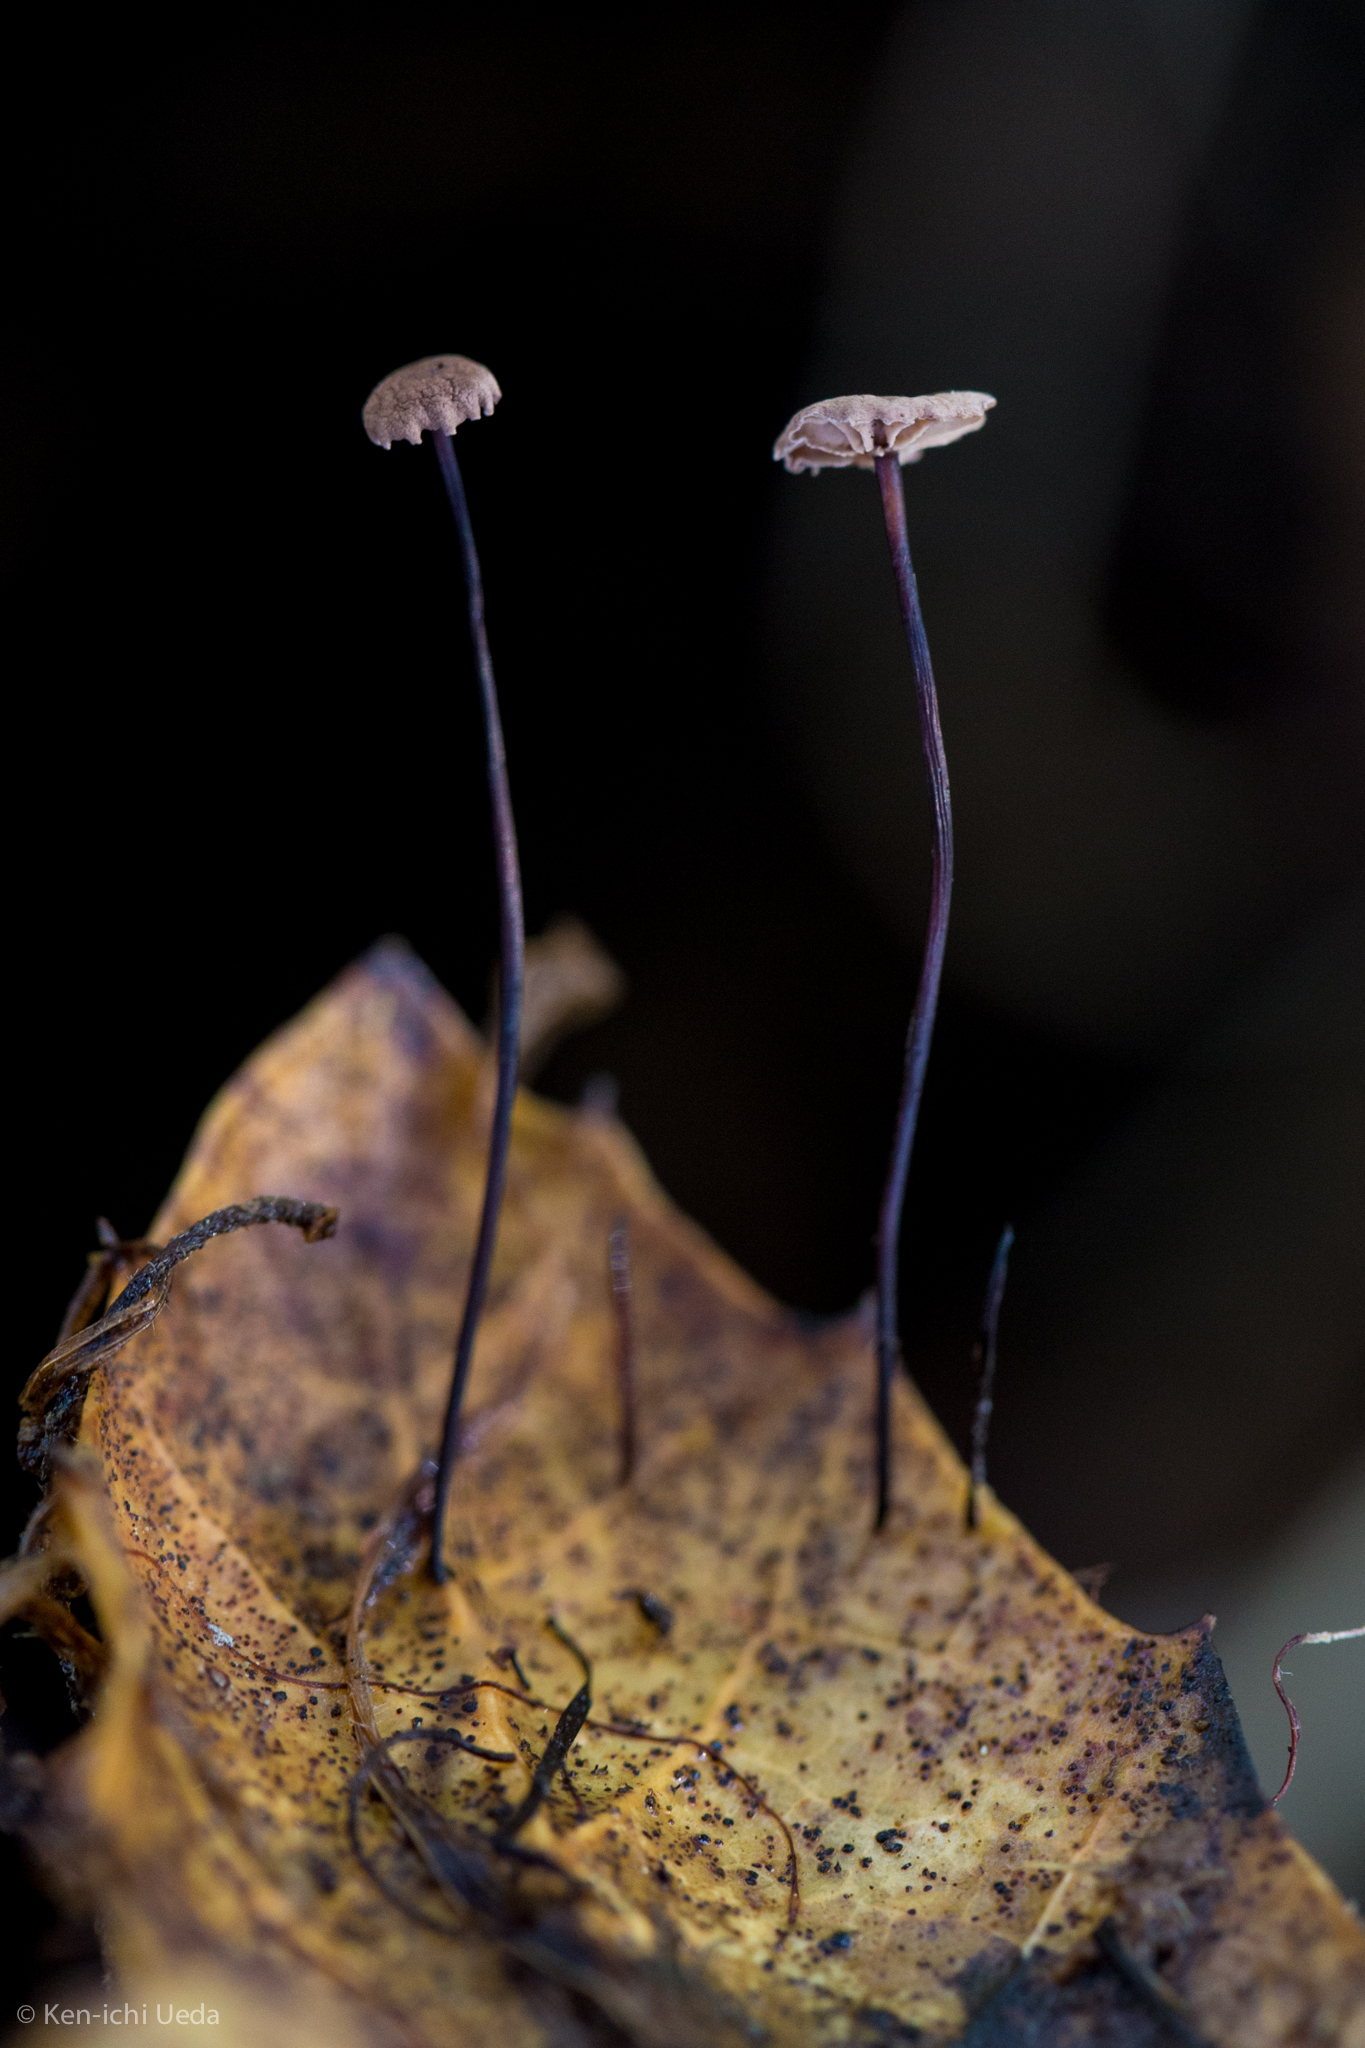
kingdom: Fungi
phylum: Basidiomycota
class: Agaricomycetes
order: Agaricales
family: Omphalotaceae
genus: Collybiopsis
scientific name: Collybiopsis quercophila
